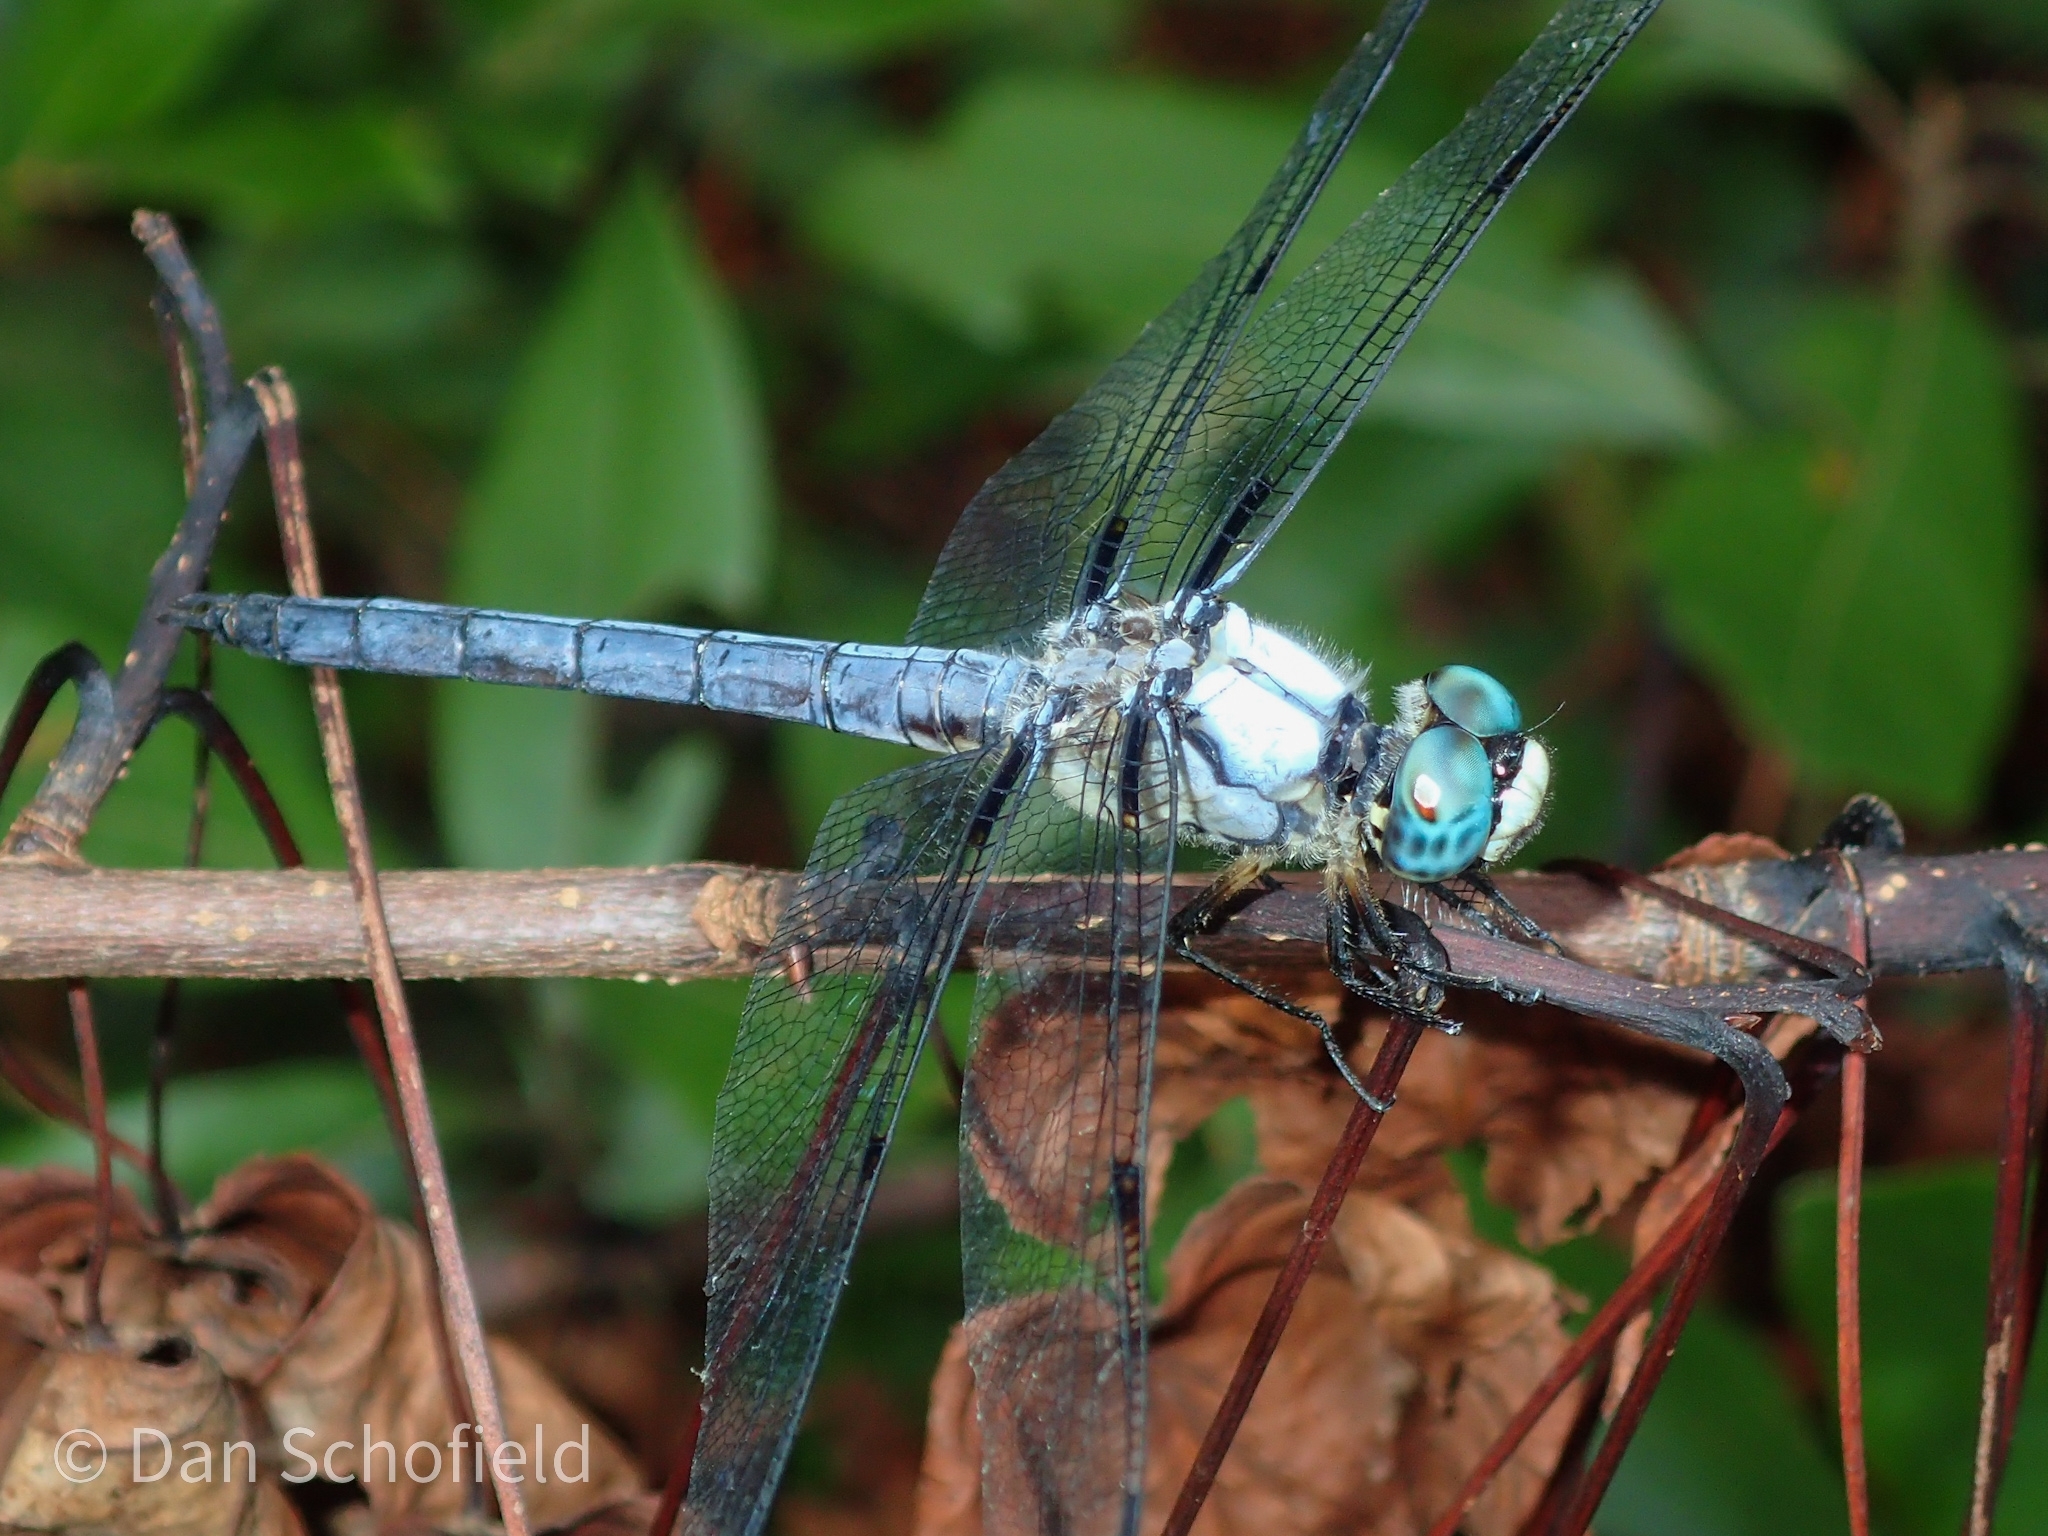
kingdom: Animalia
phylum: Arthropoda
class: Insecta
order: Odonata
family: Libellulidae
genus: Libellula
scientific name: Libellula vibrans
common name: Great blue skimmer
